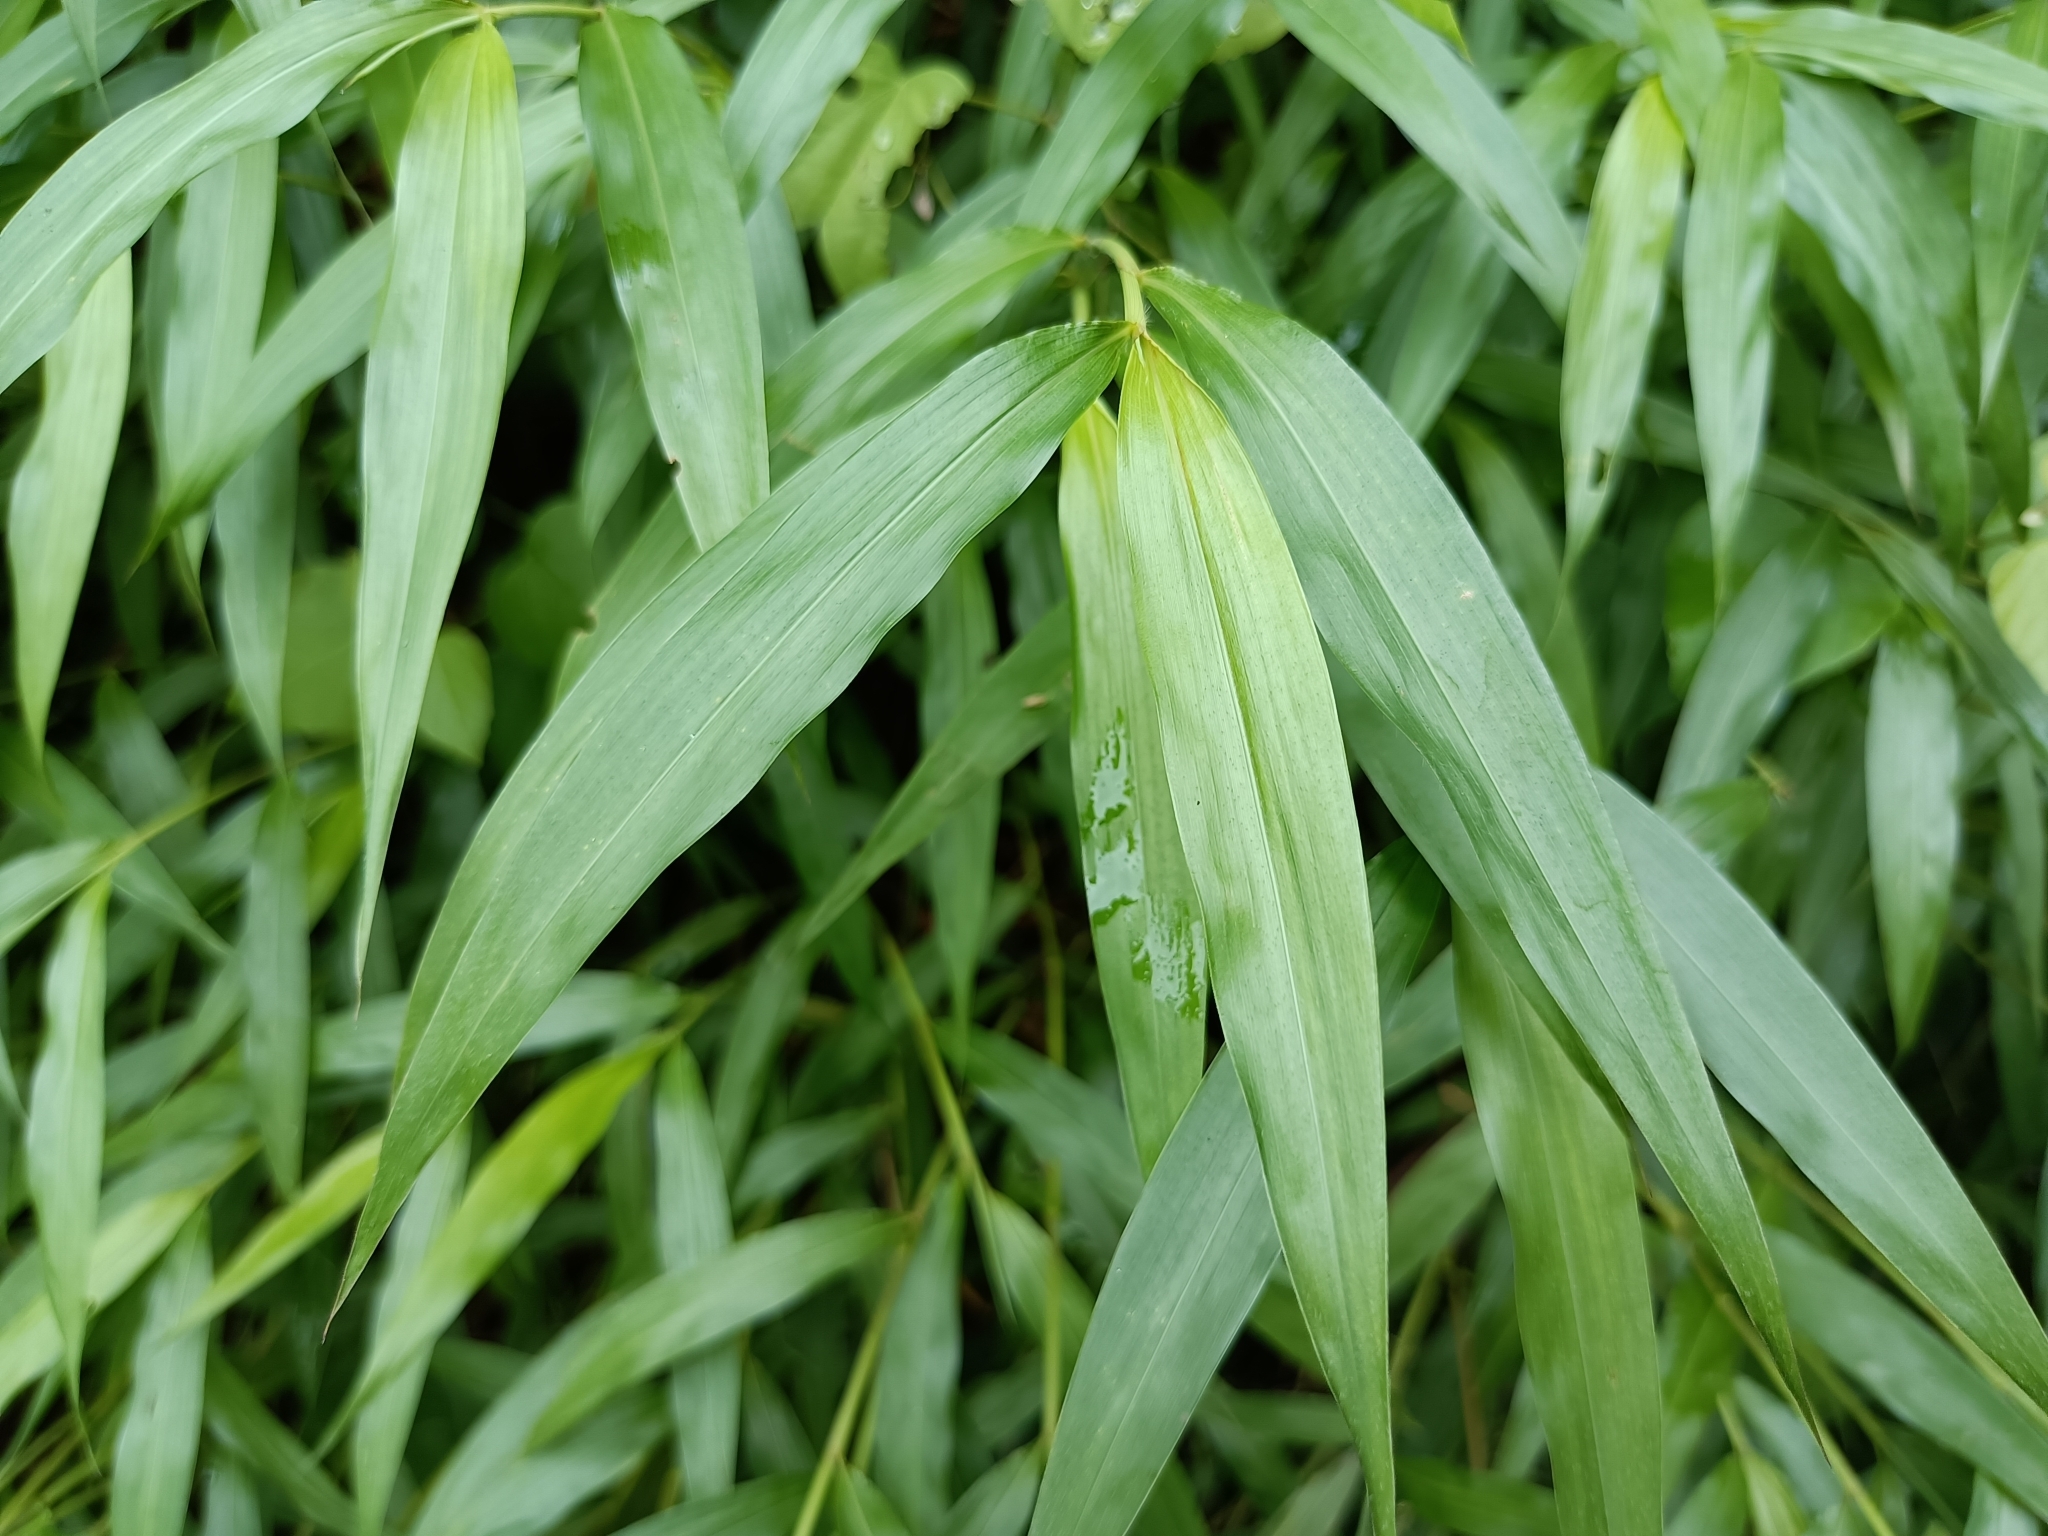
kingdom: Plantae
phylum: Tracheophyta
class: Liliopsida
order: Poales
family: Poaceae
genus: Microstegium
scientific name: Microstegium vimineum
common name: Japanese stiltgrass
